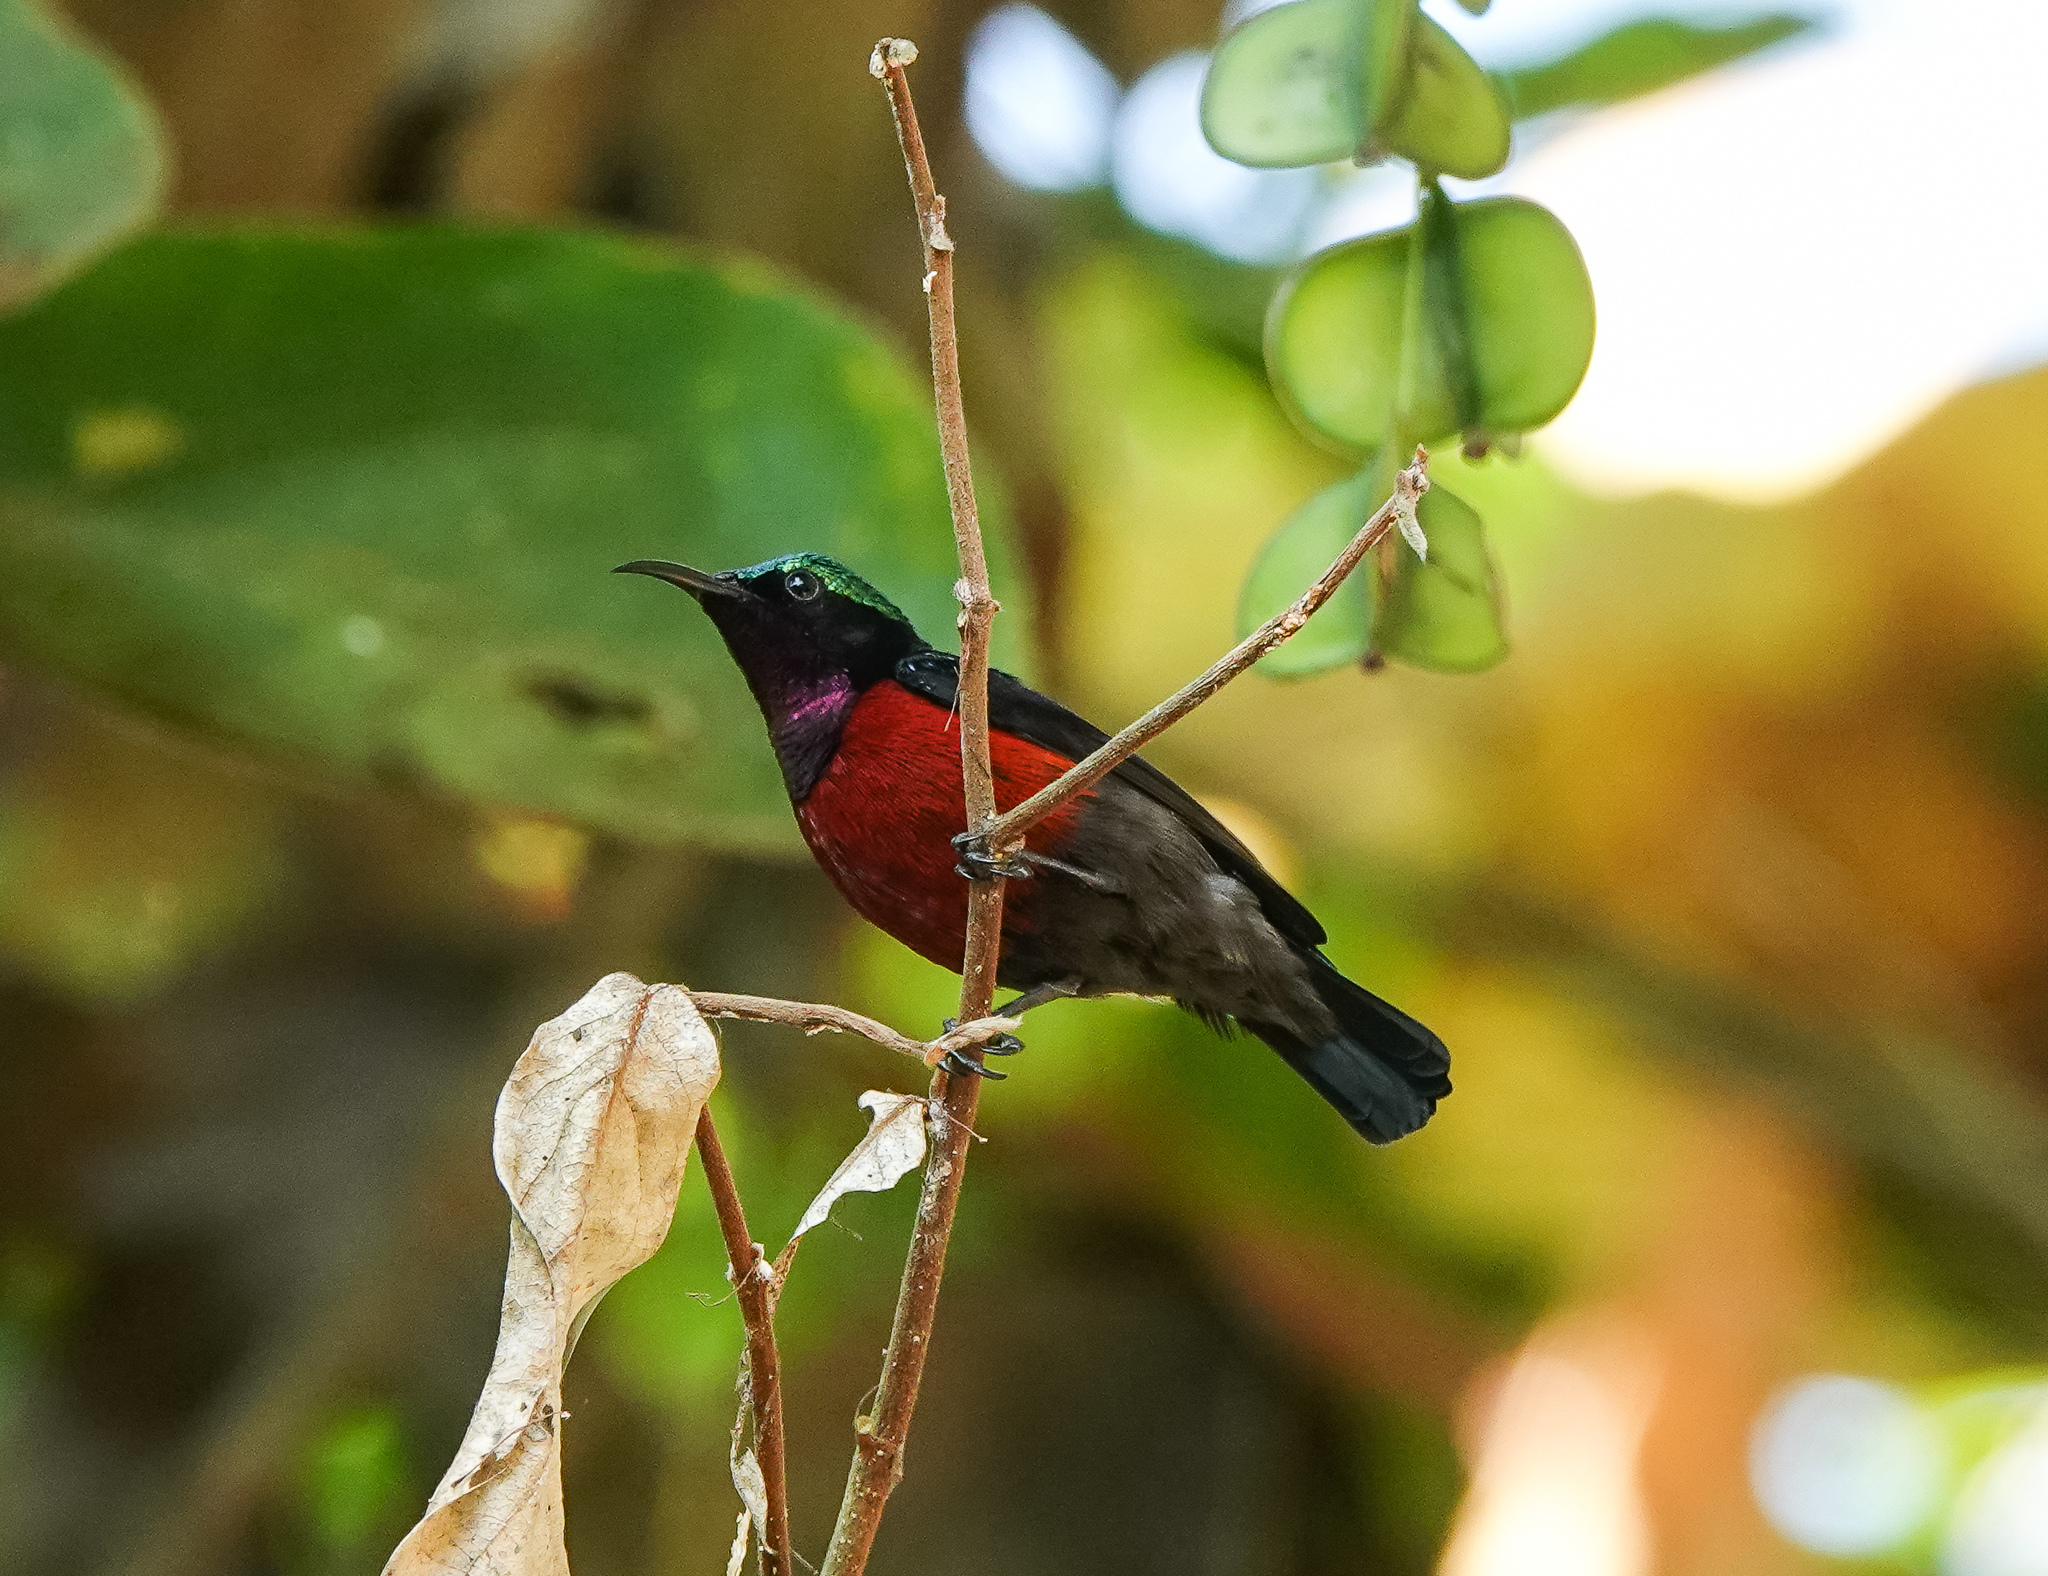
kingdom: Animalia
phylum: Chordata
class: Aves
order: Passeriformes
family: Nectariniidae
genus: Leptocoma
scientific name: Leptocoma brasiliana
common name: Van hasselt's sunbird
